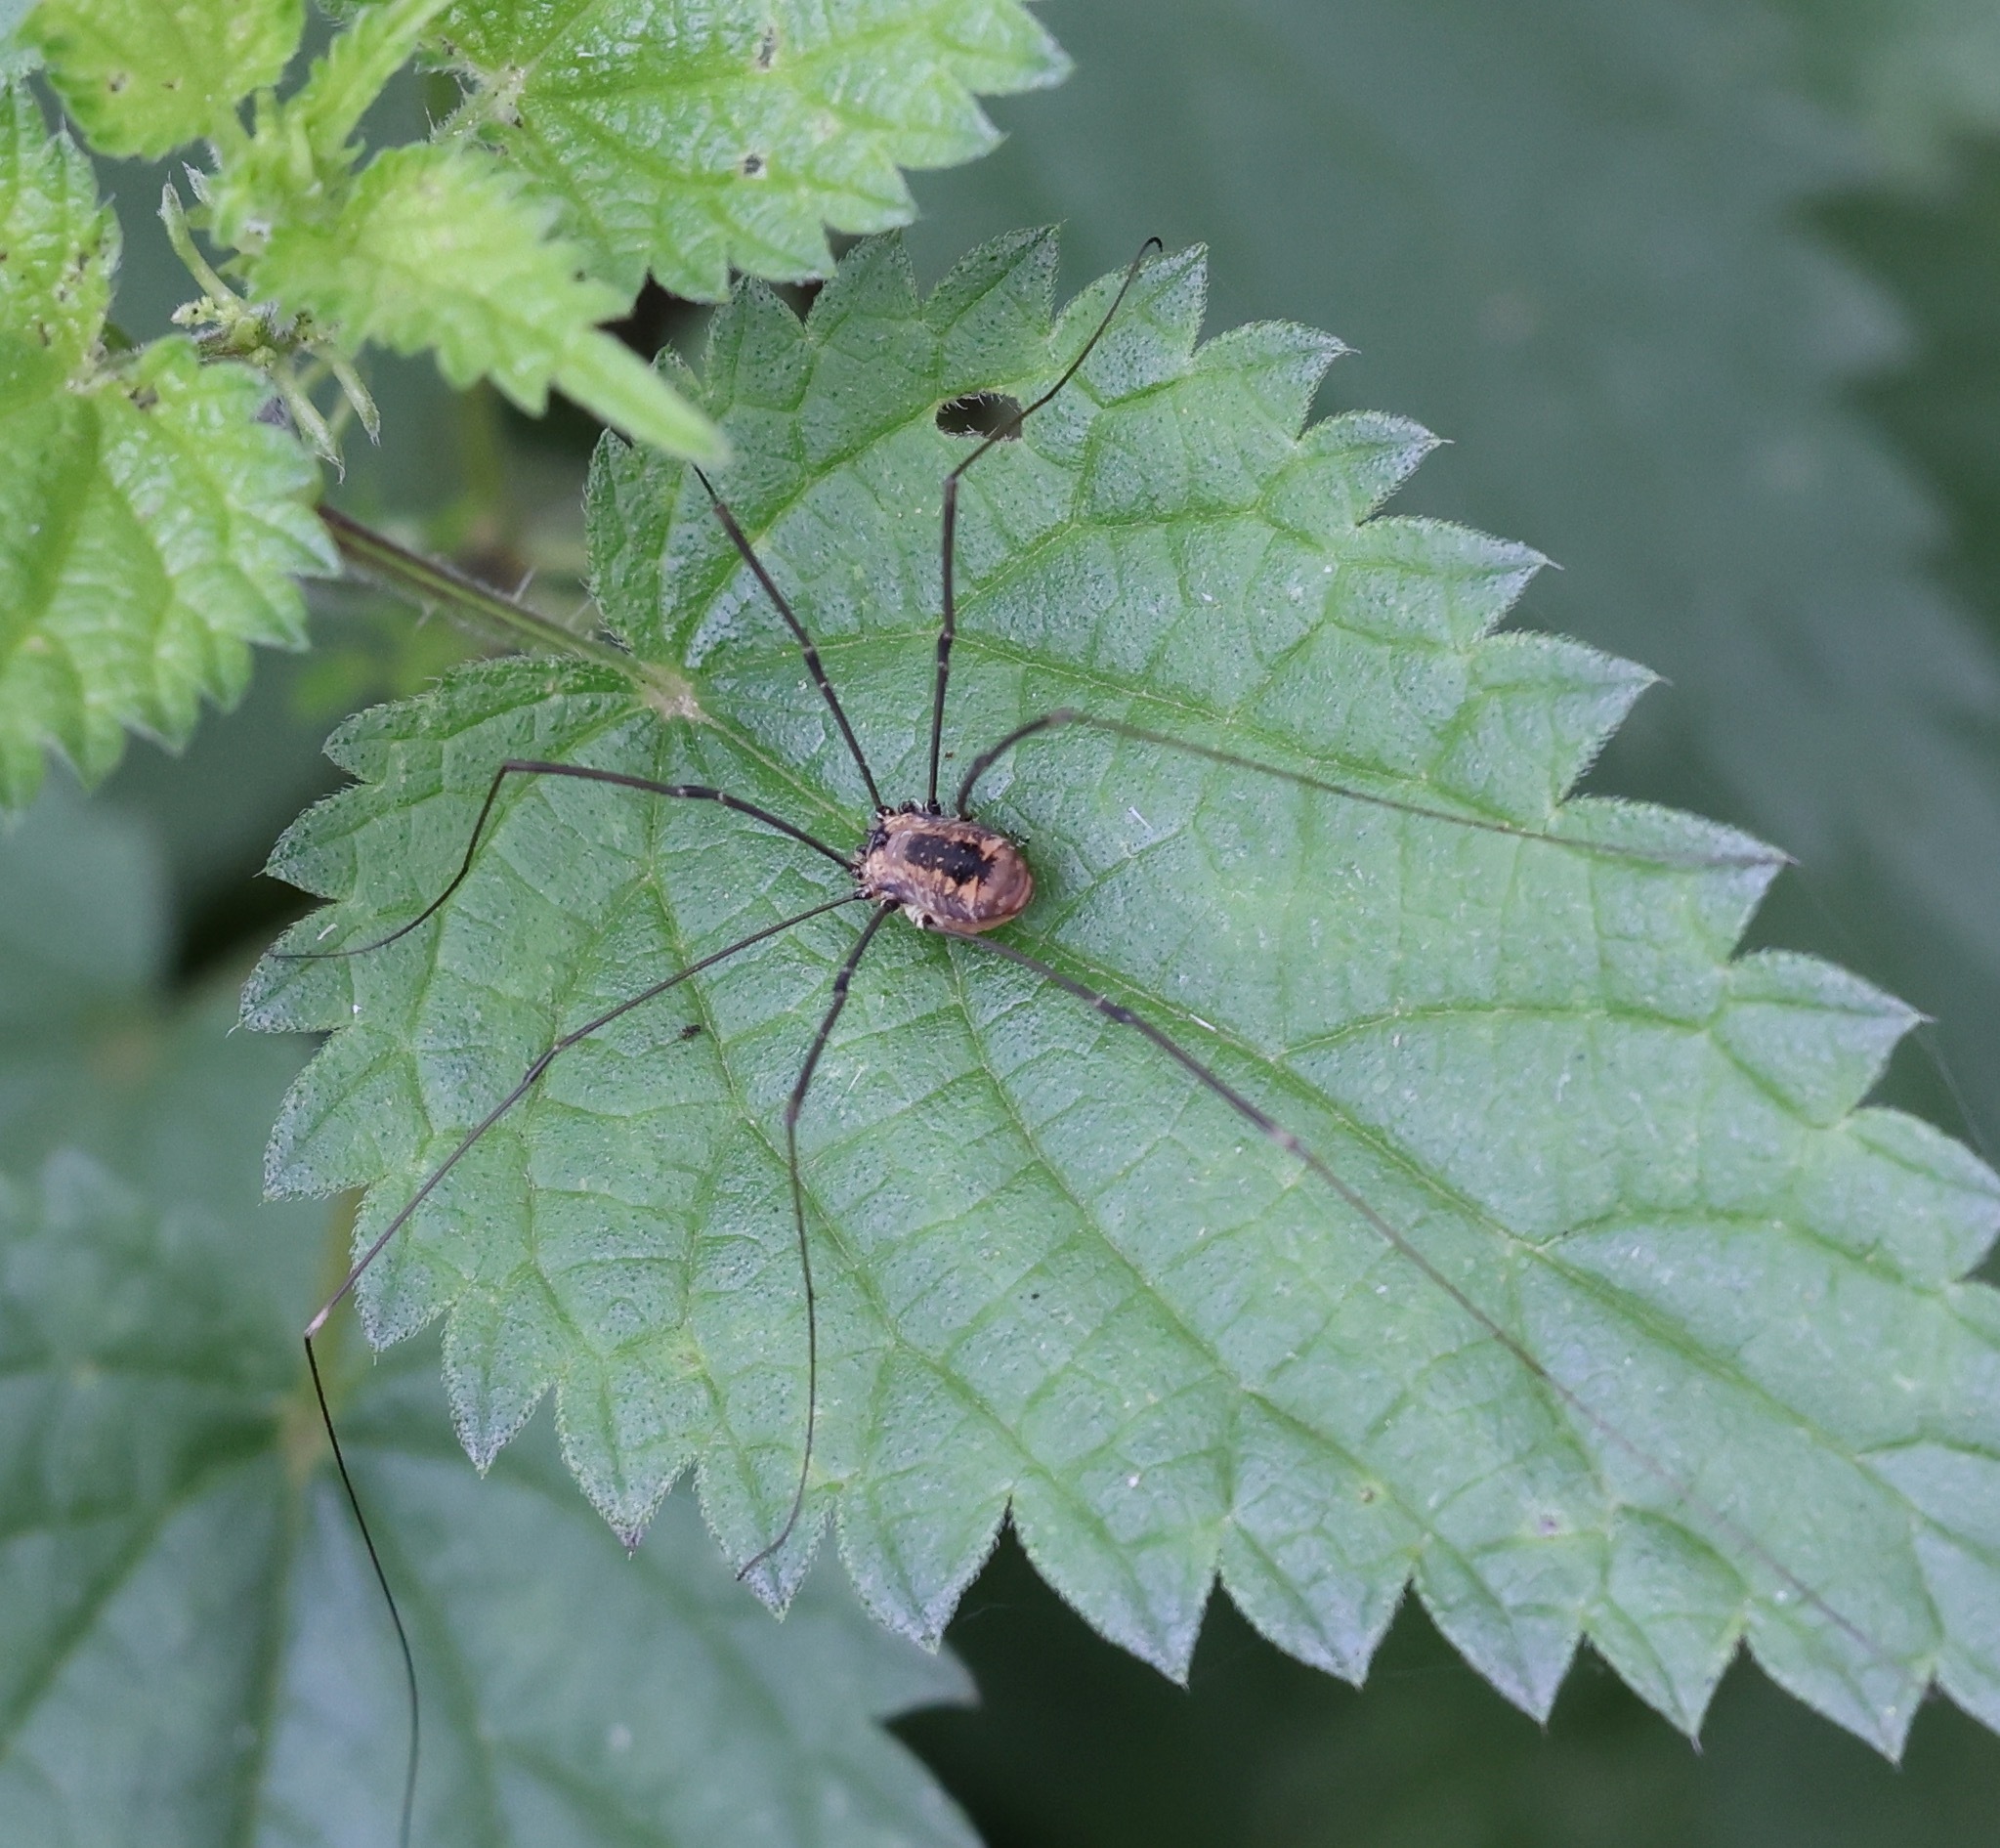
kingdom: Animalia
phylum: Arthropoda
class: Arachnida
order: Opiliones
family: Sclerosomatidae
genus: Leiobunum
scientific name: Leiobunum rotundum
